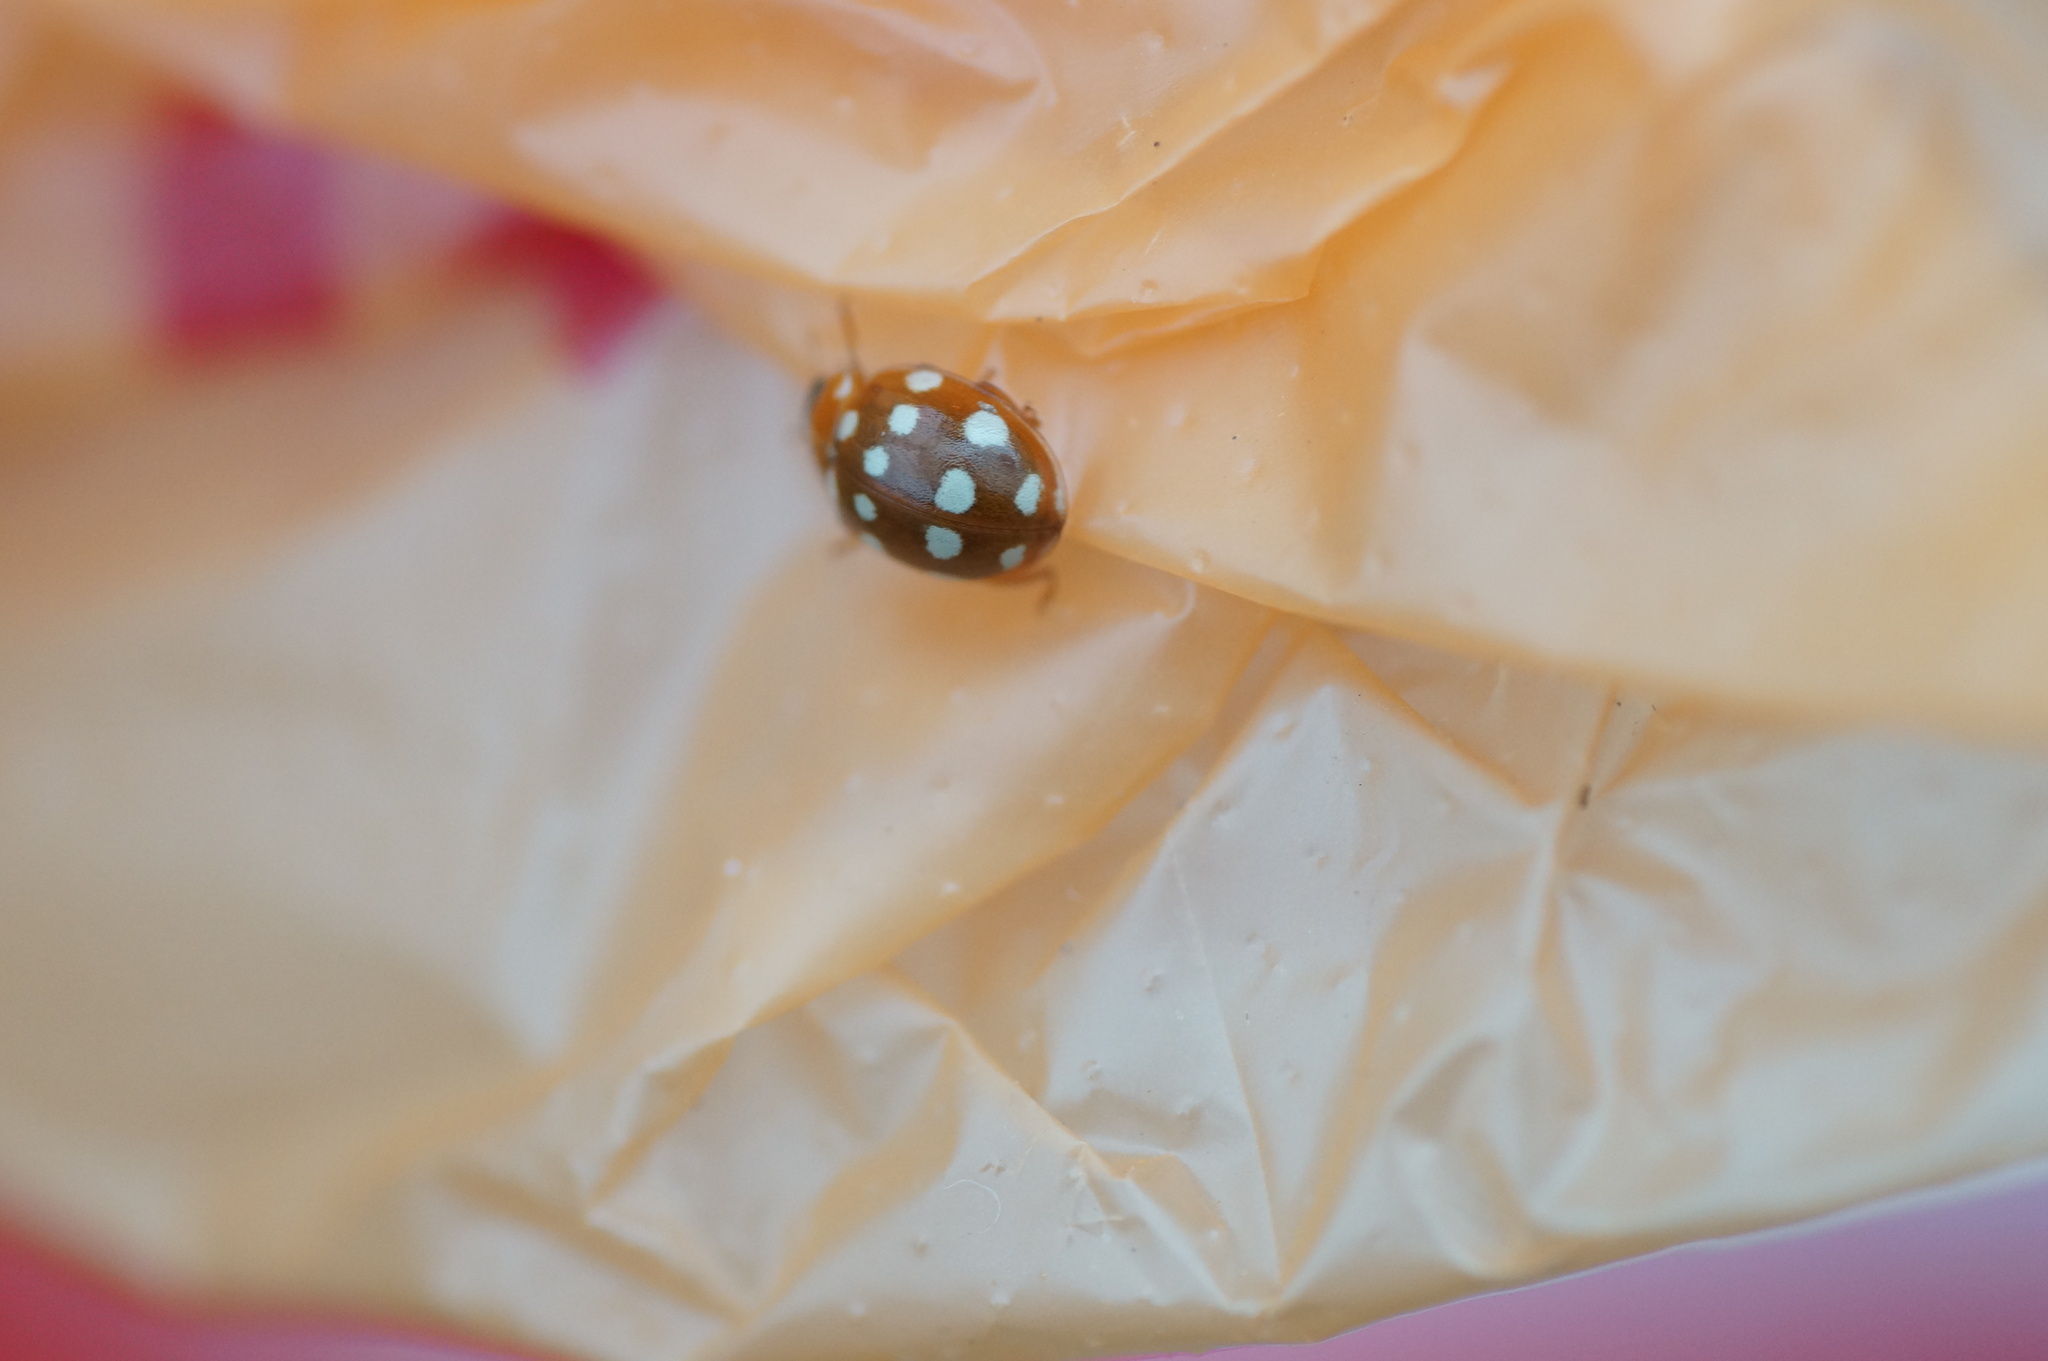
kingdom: Animalia
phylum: Arthropoda
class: Insecta
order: Coleoptera
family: Coccinellidae
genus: Calvia
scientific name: Calvia quatuordecimguttata
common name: Cream-spot ladybird
